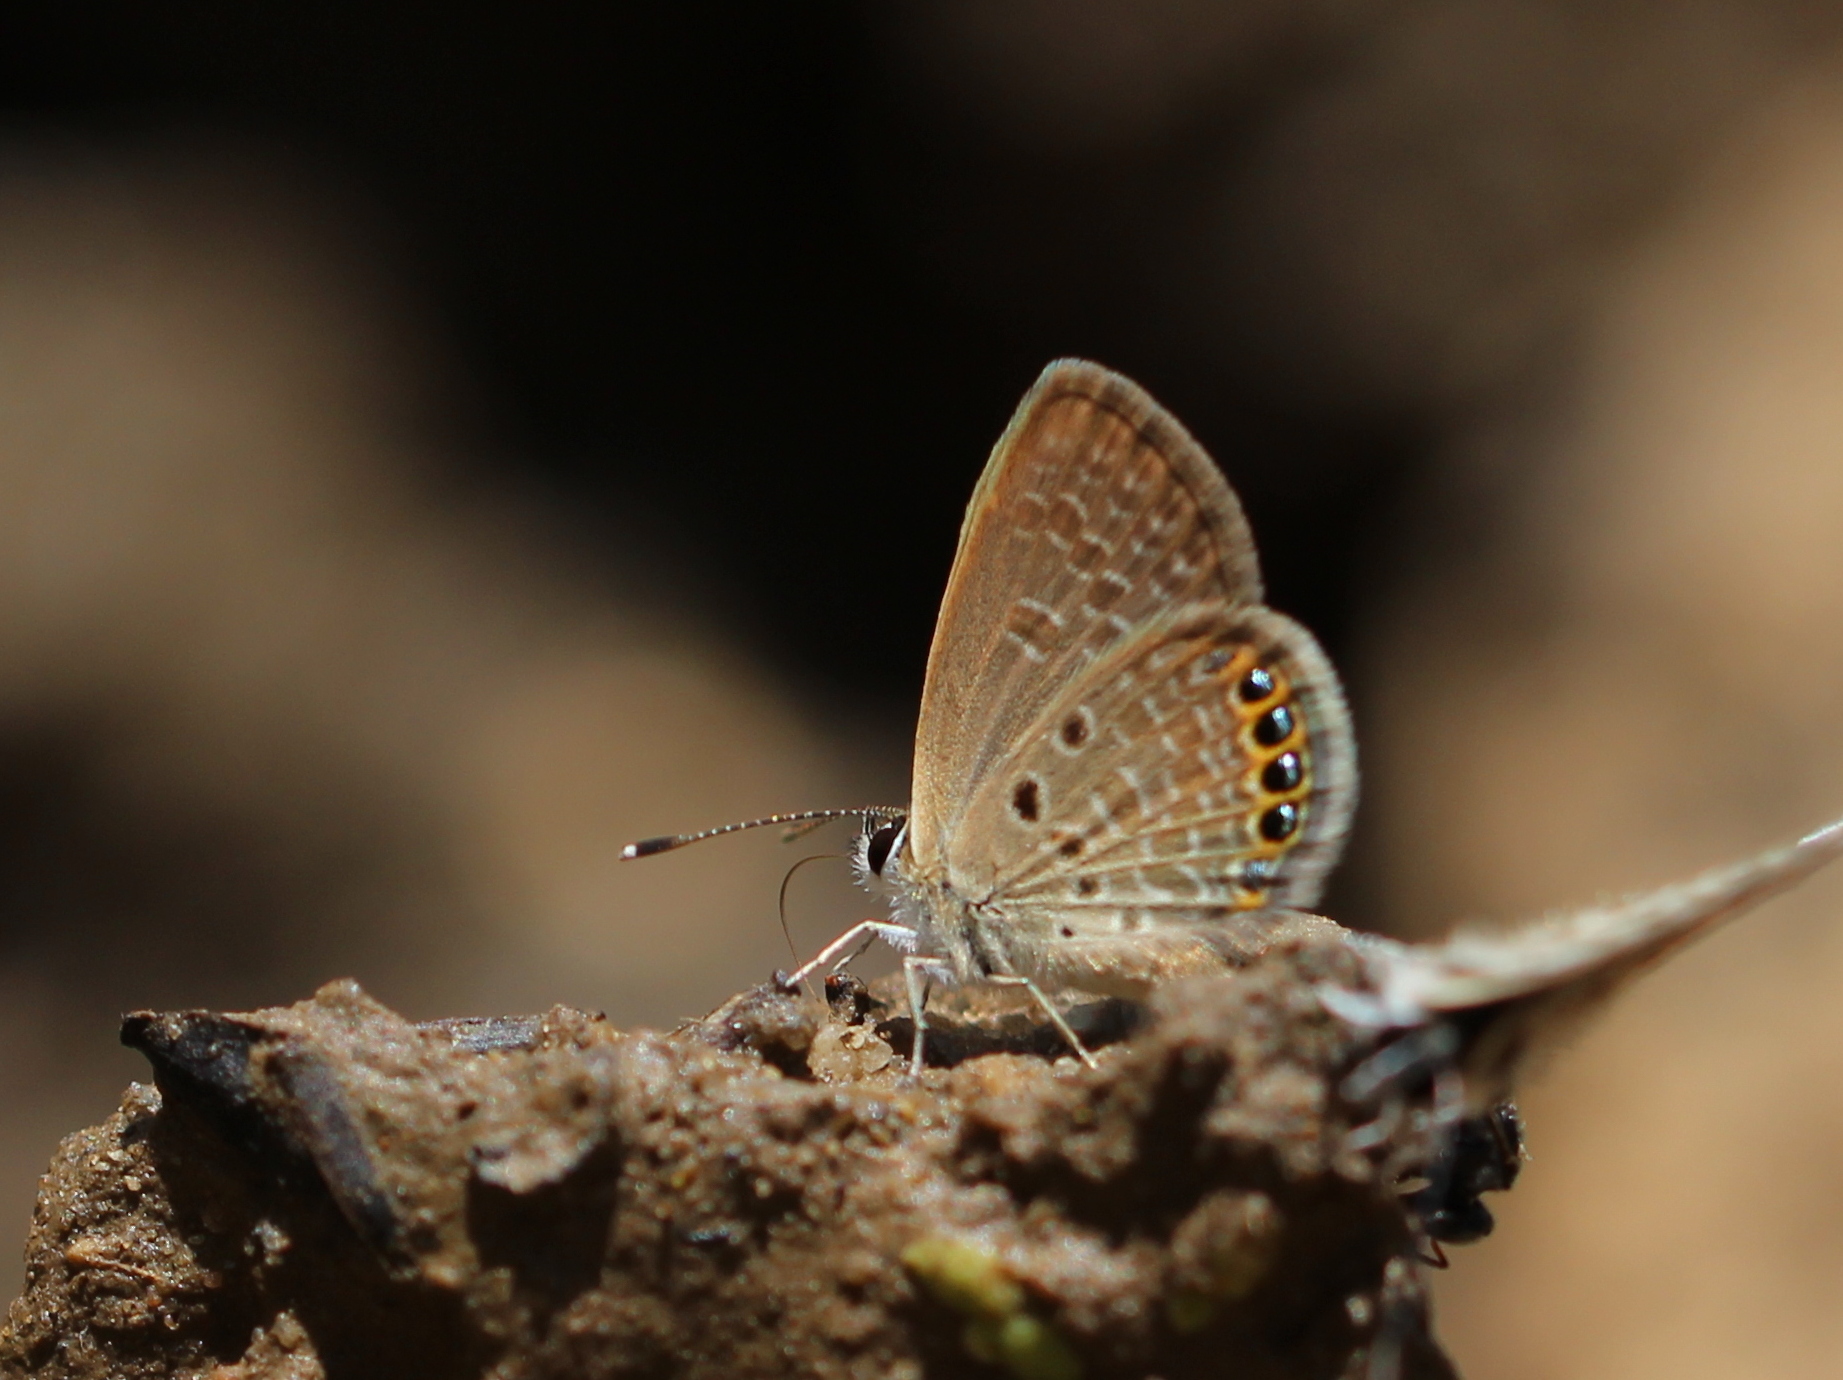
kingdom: Animalia
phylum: Arthropoda
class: Insecta
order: Lepidoptera
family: Lycaenidae
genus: Freyeria
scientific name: Freyeria putli
